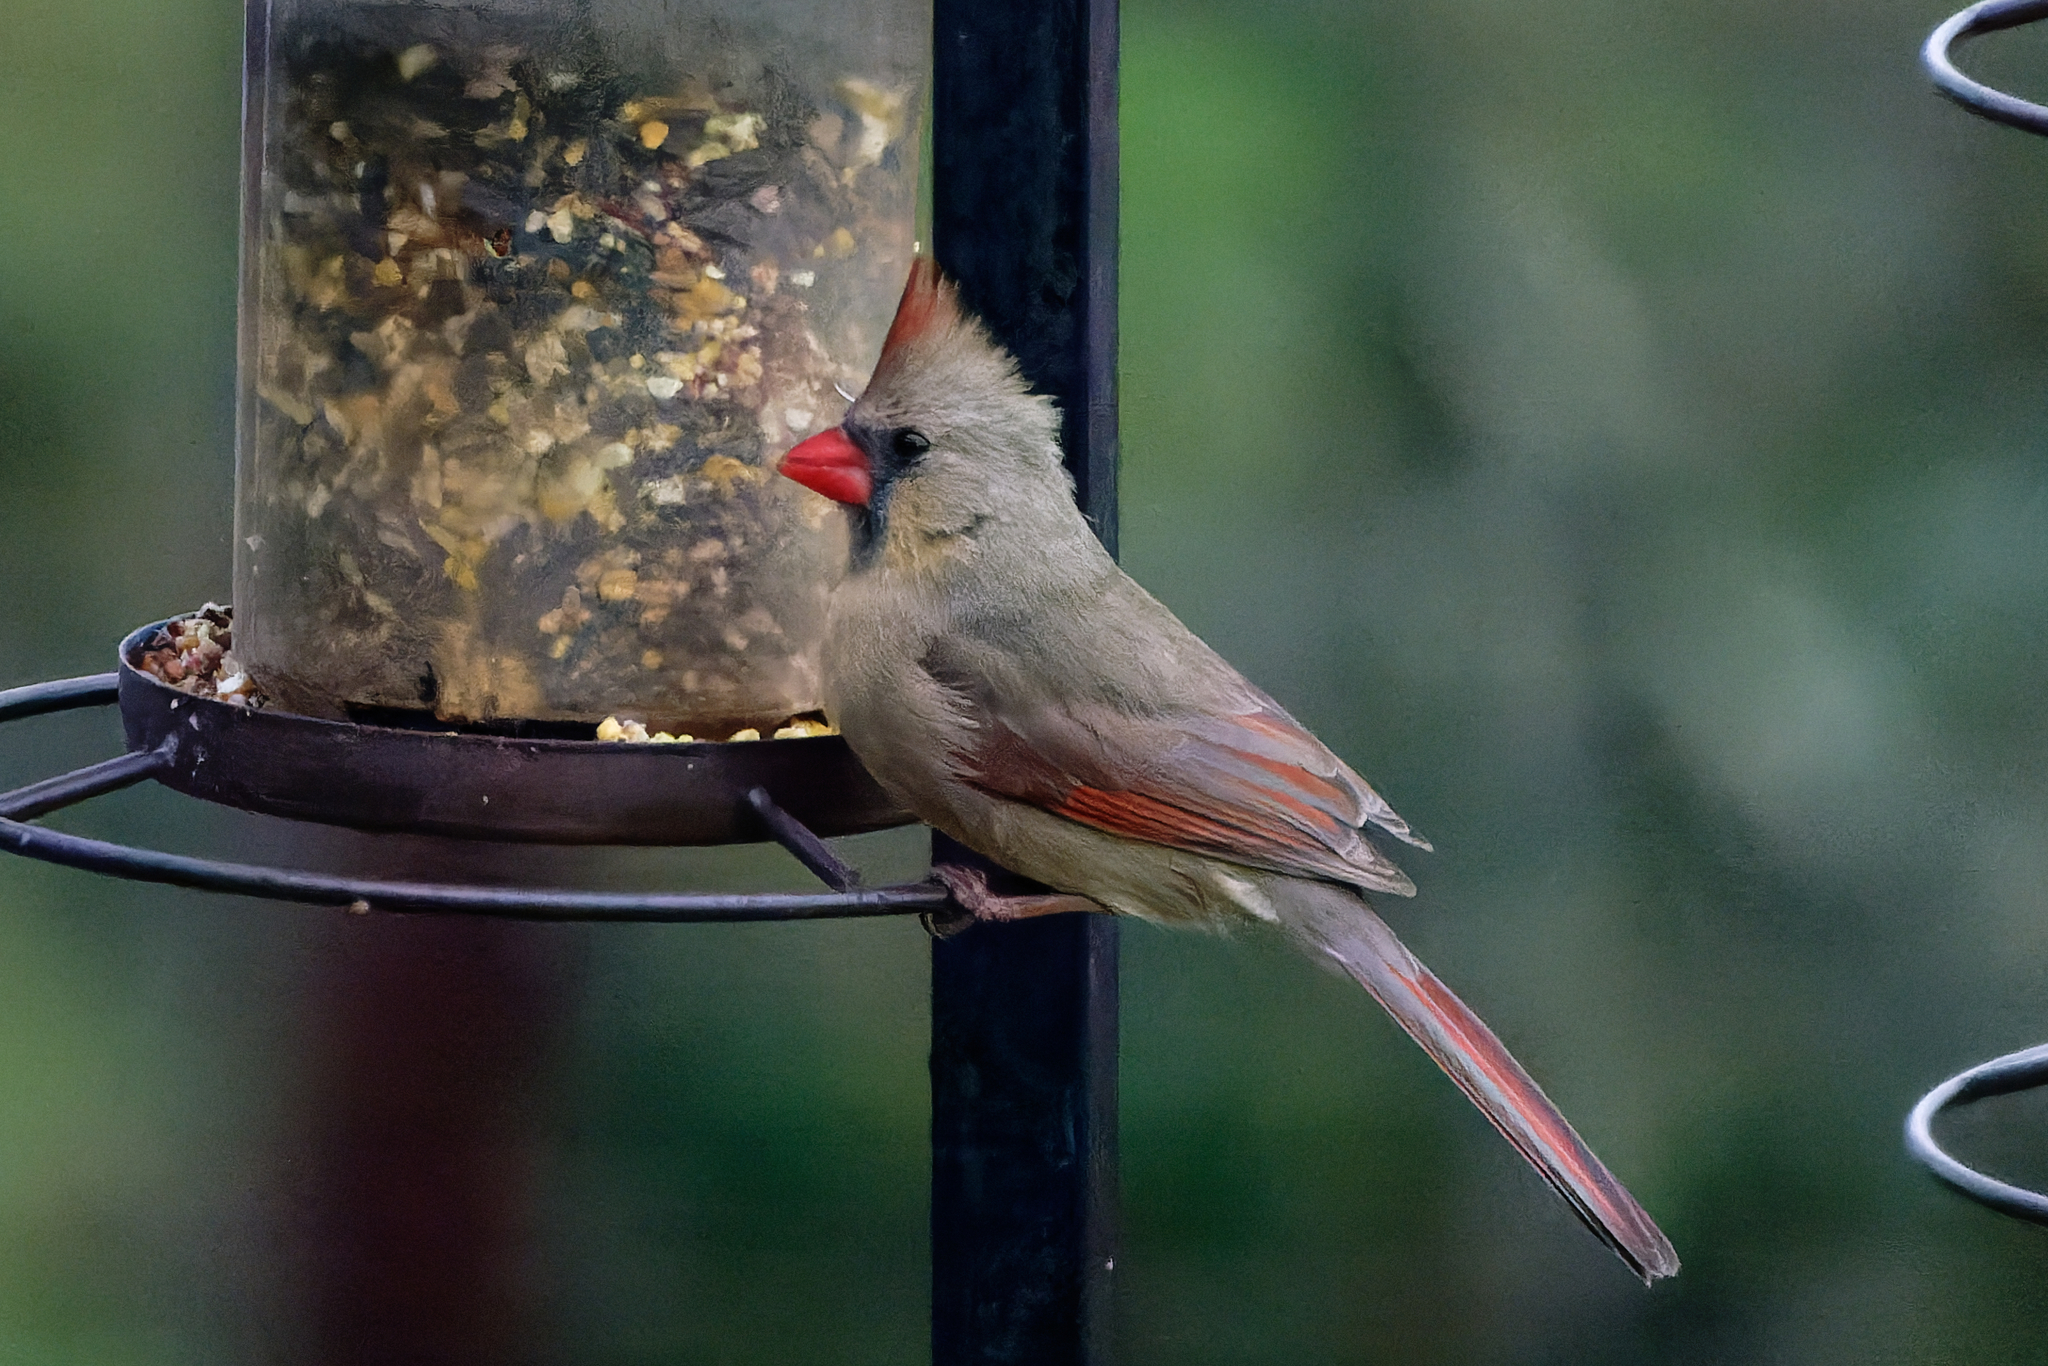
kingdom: Animalia
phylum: Chordata
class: Aves
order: Passeriformes
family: Cardinalidae
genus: Cardinalis
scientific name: Cardinalis cardinalis
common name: Northern cardinal
